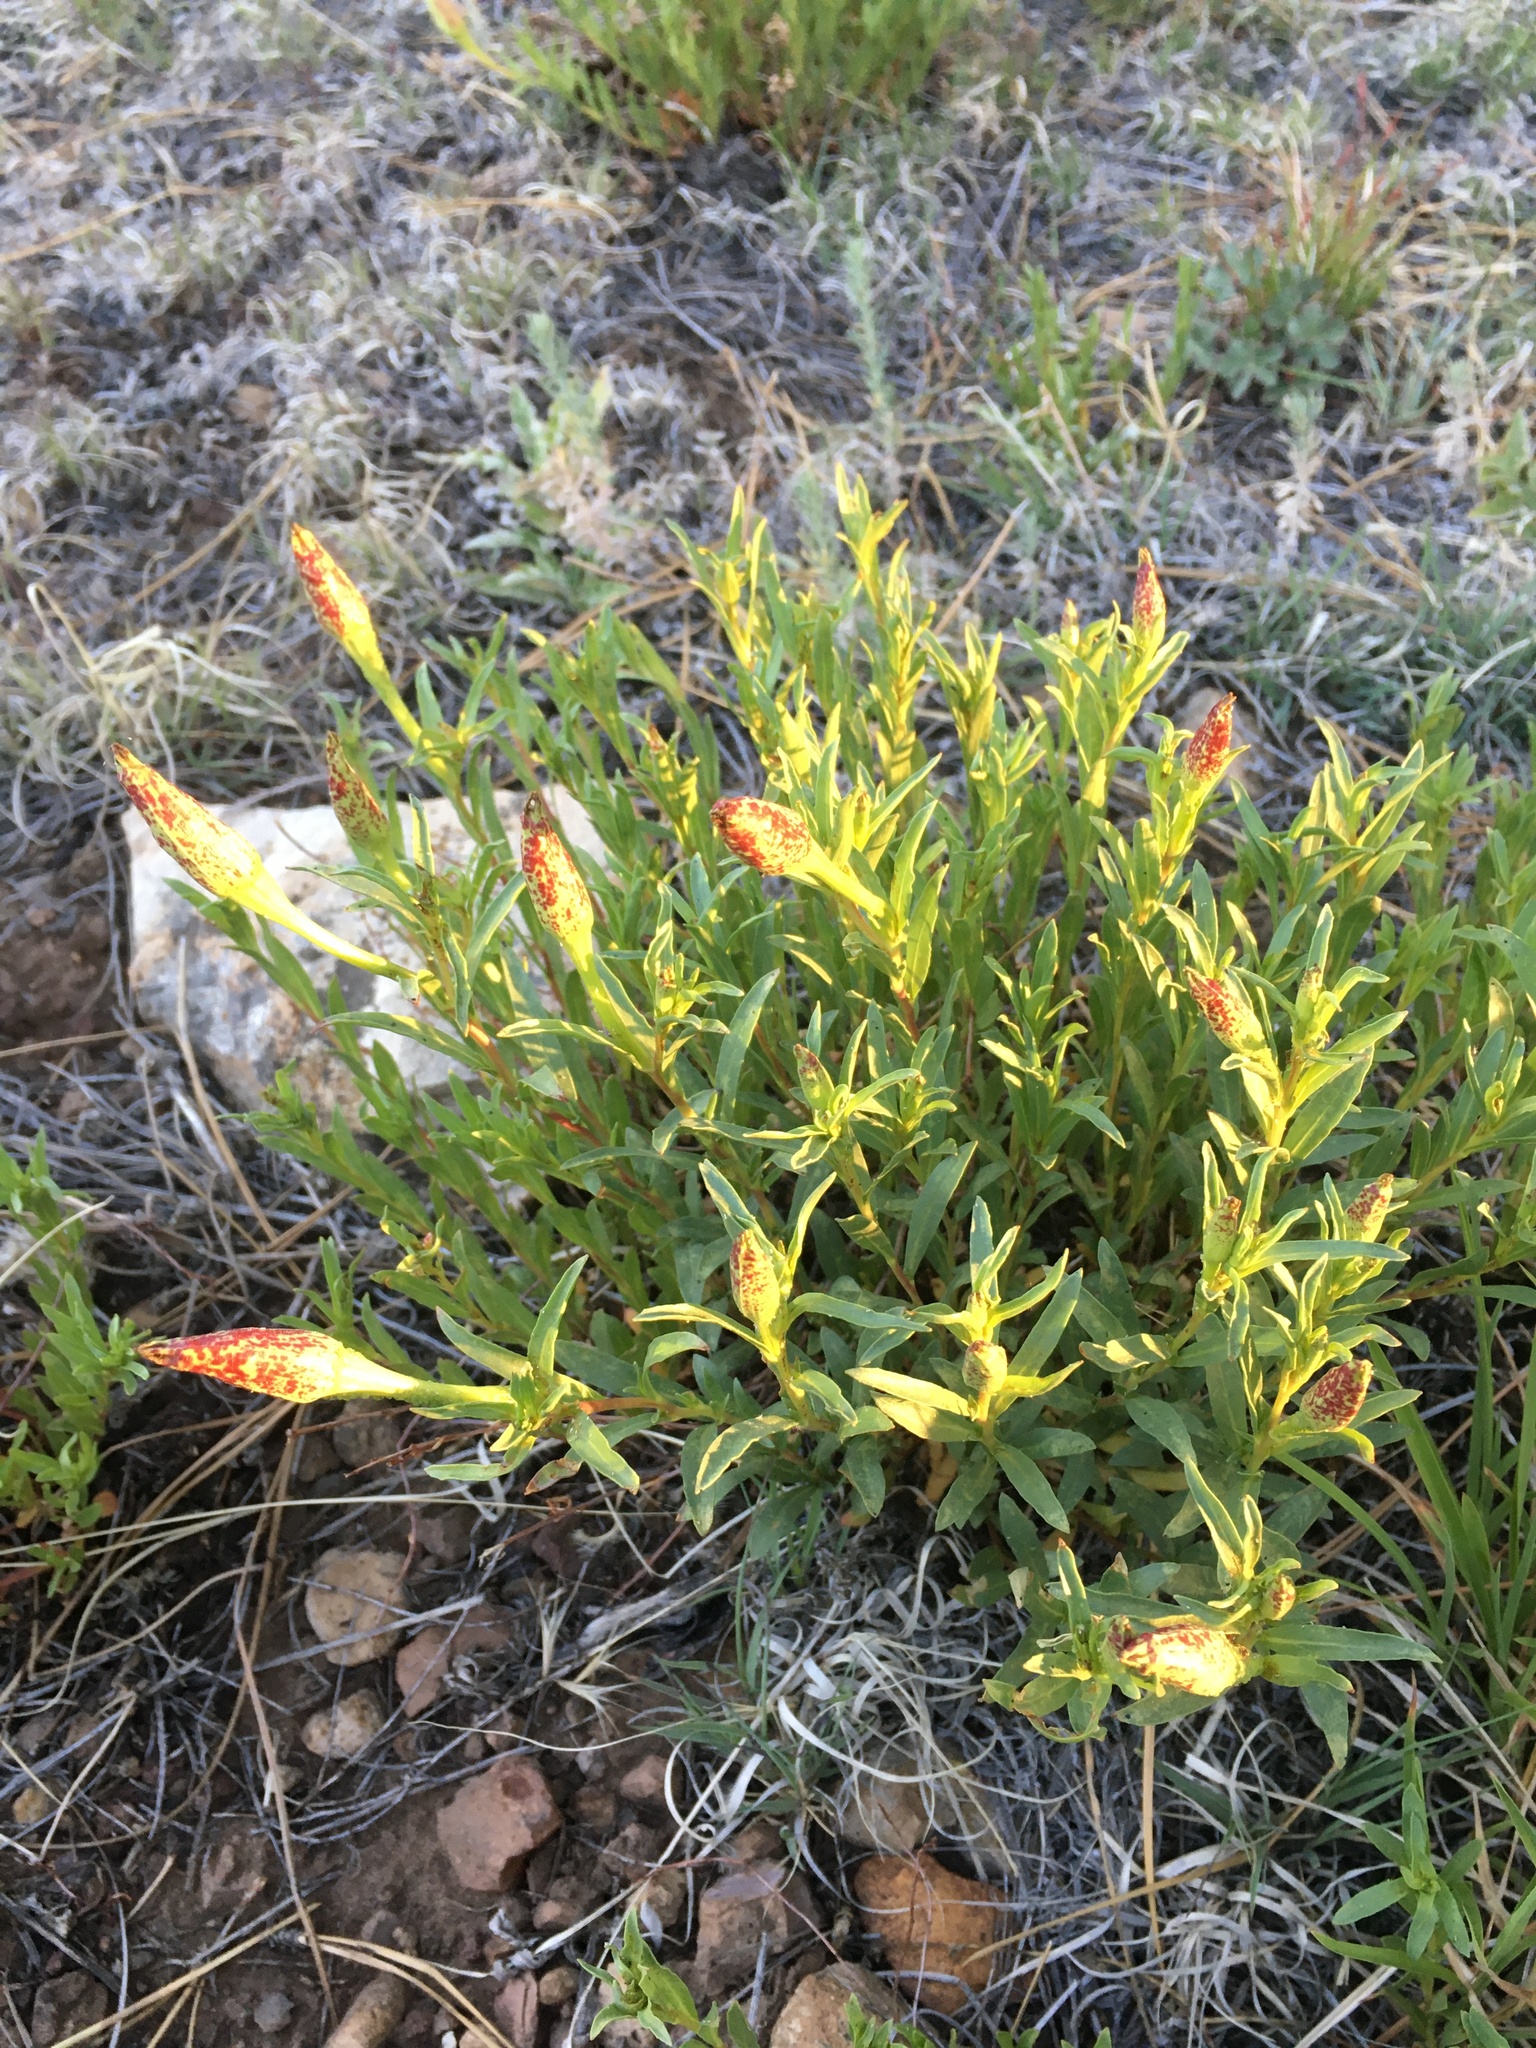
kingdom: Plantae
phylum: Tracheophyta
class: Magnoliopsida
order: Myrtales
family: Onagraceae
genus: Oenothera
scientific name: Oenothera hartwegii
